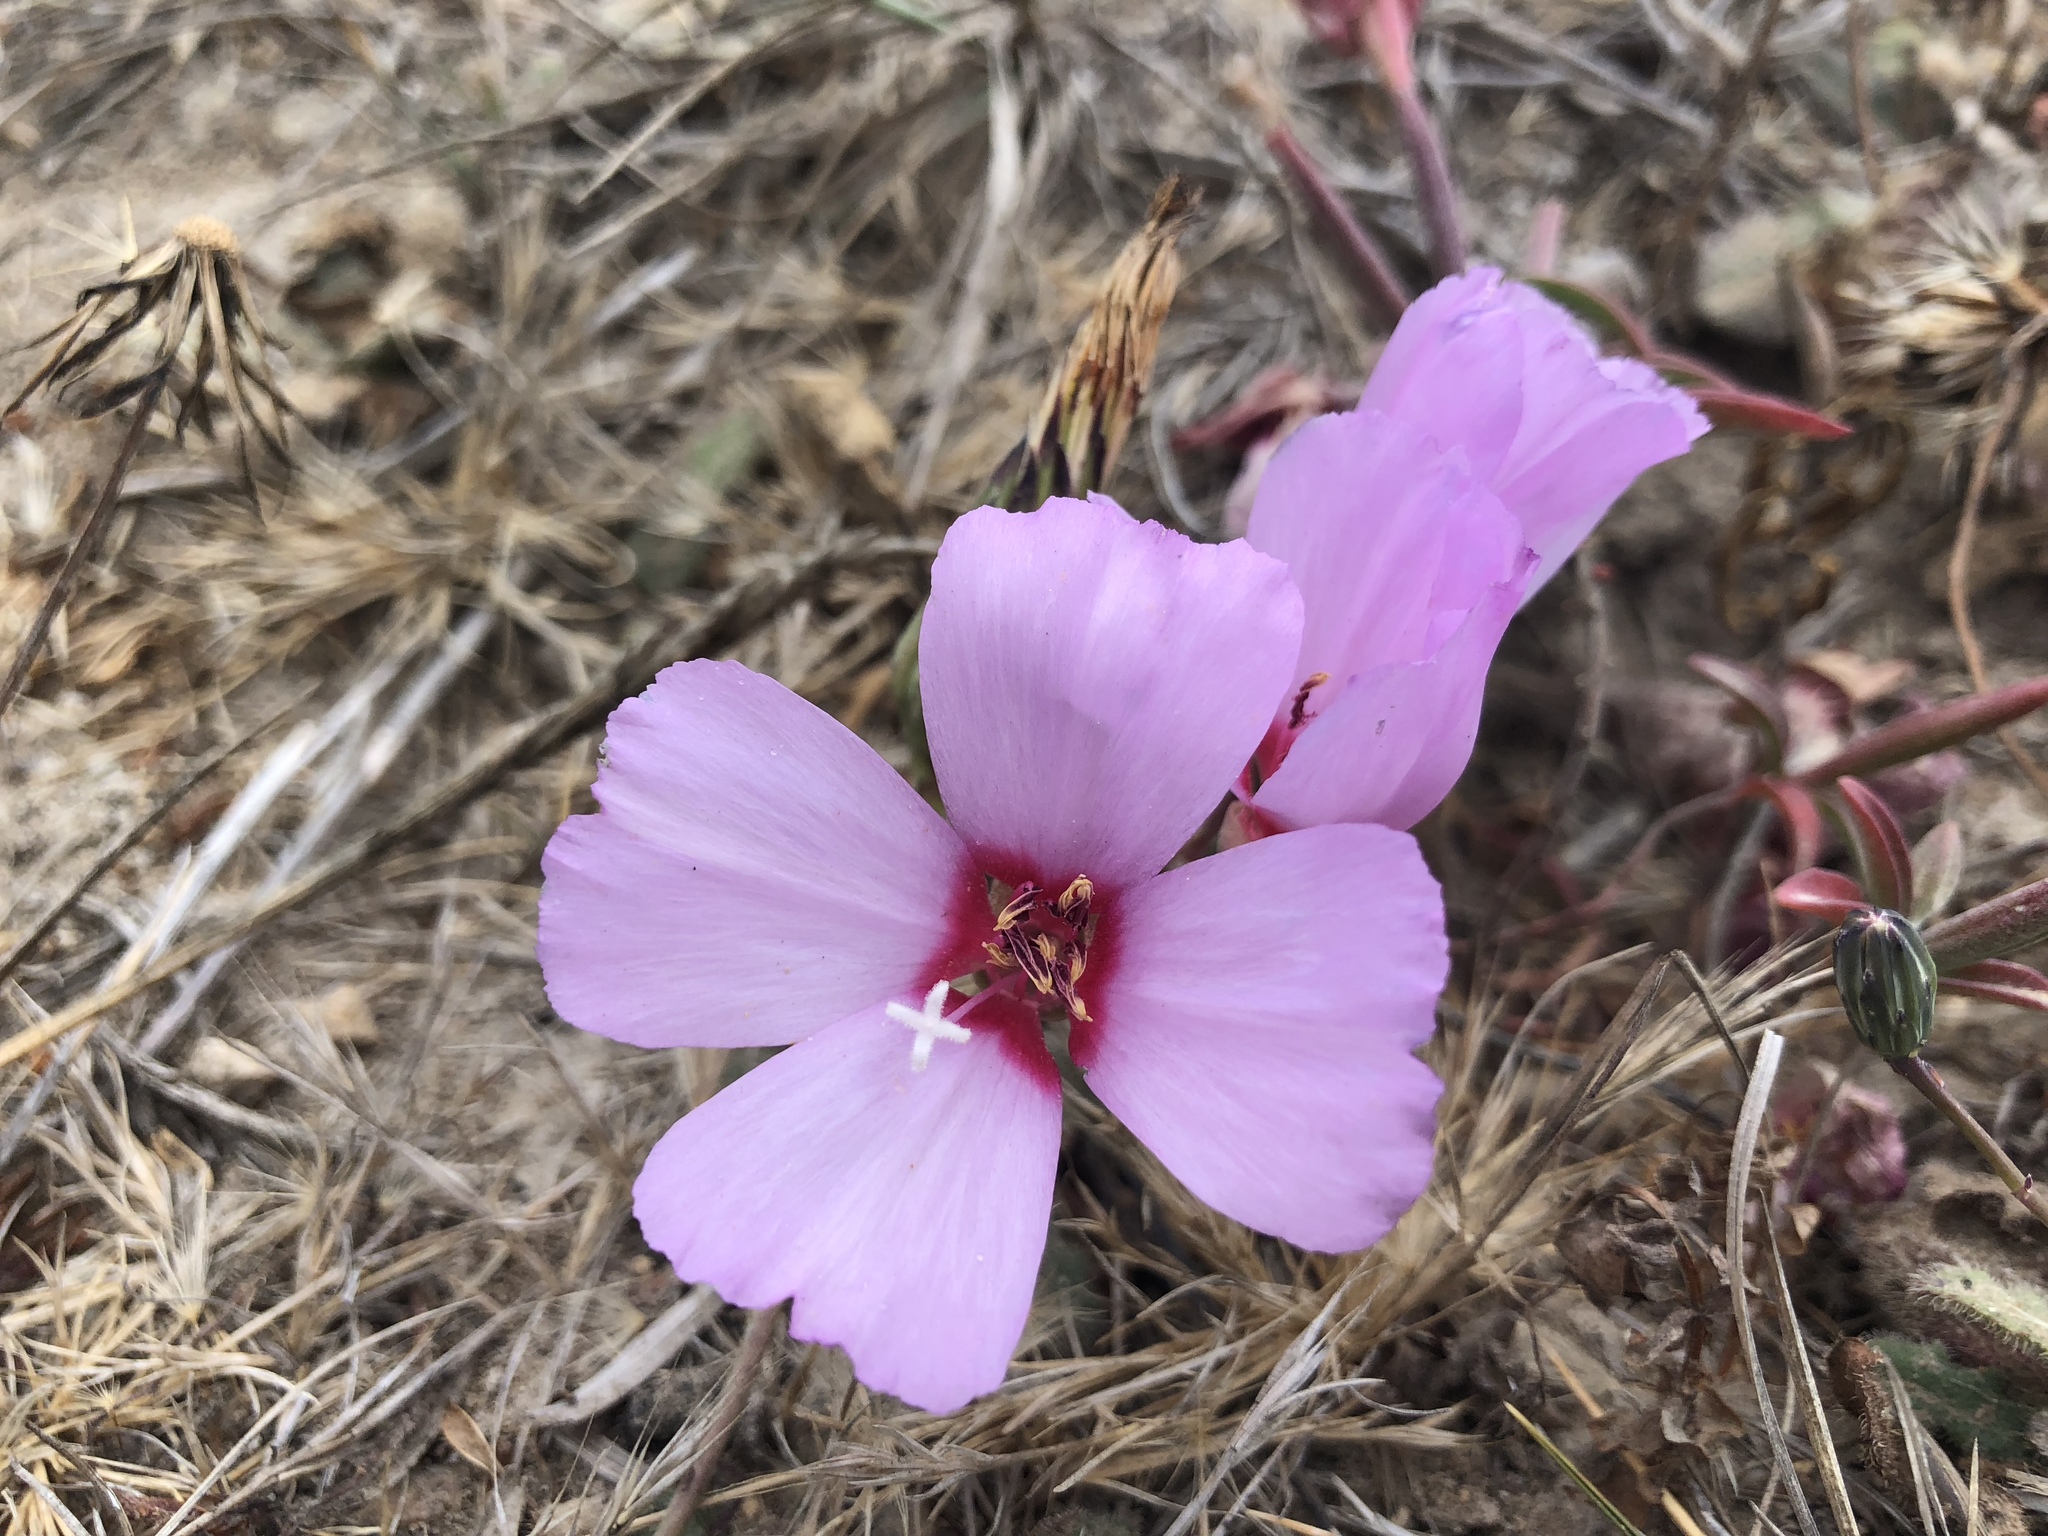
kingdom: Plantae
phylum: Tracheophyta
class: Magnoliopsida
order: Myrtales
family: Onagraceae
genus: Clarkia
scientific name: Clarkia rubicunda
